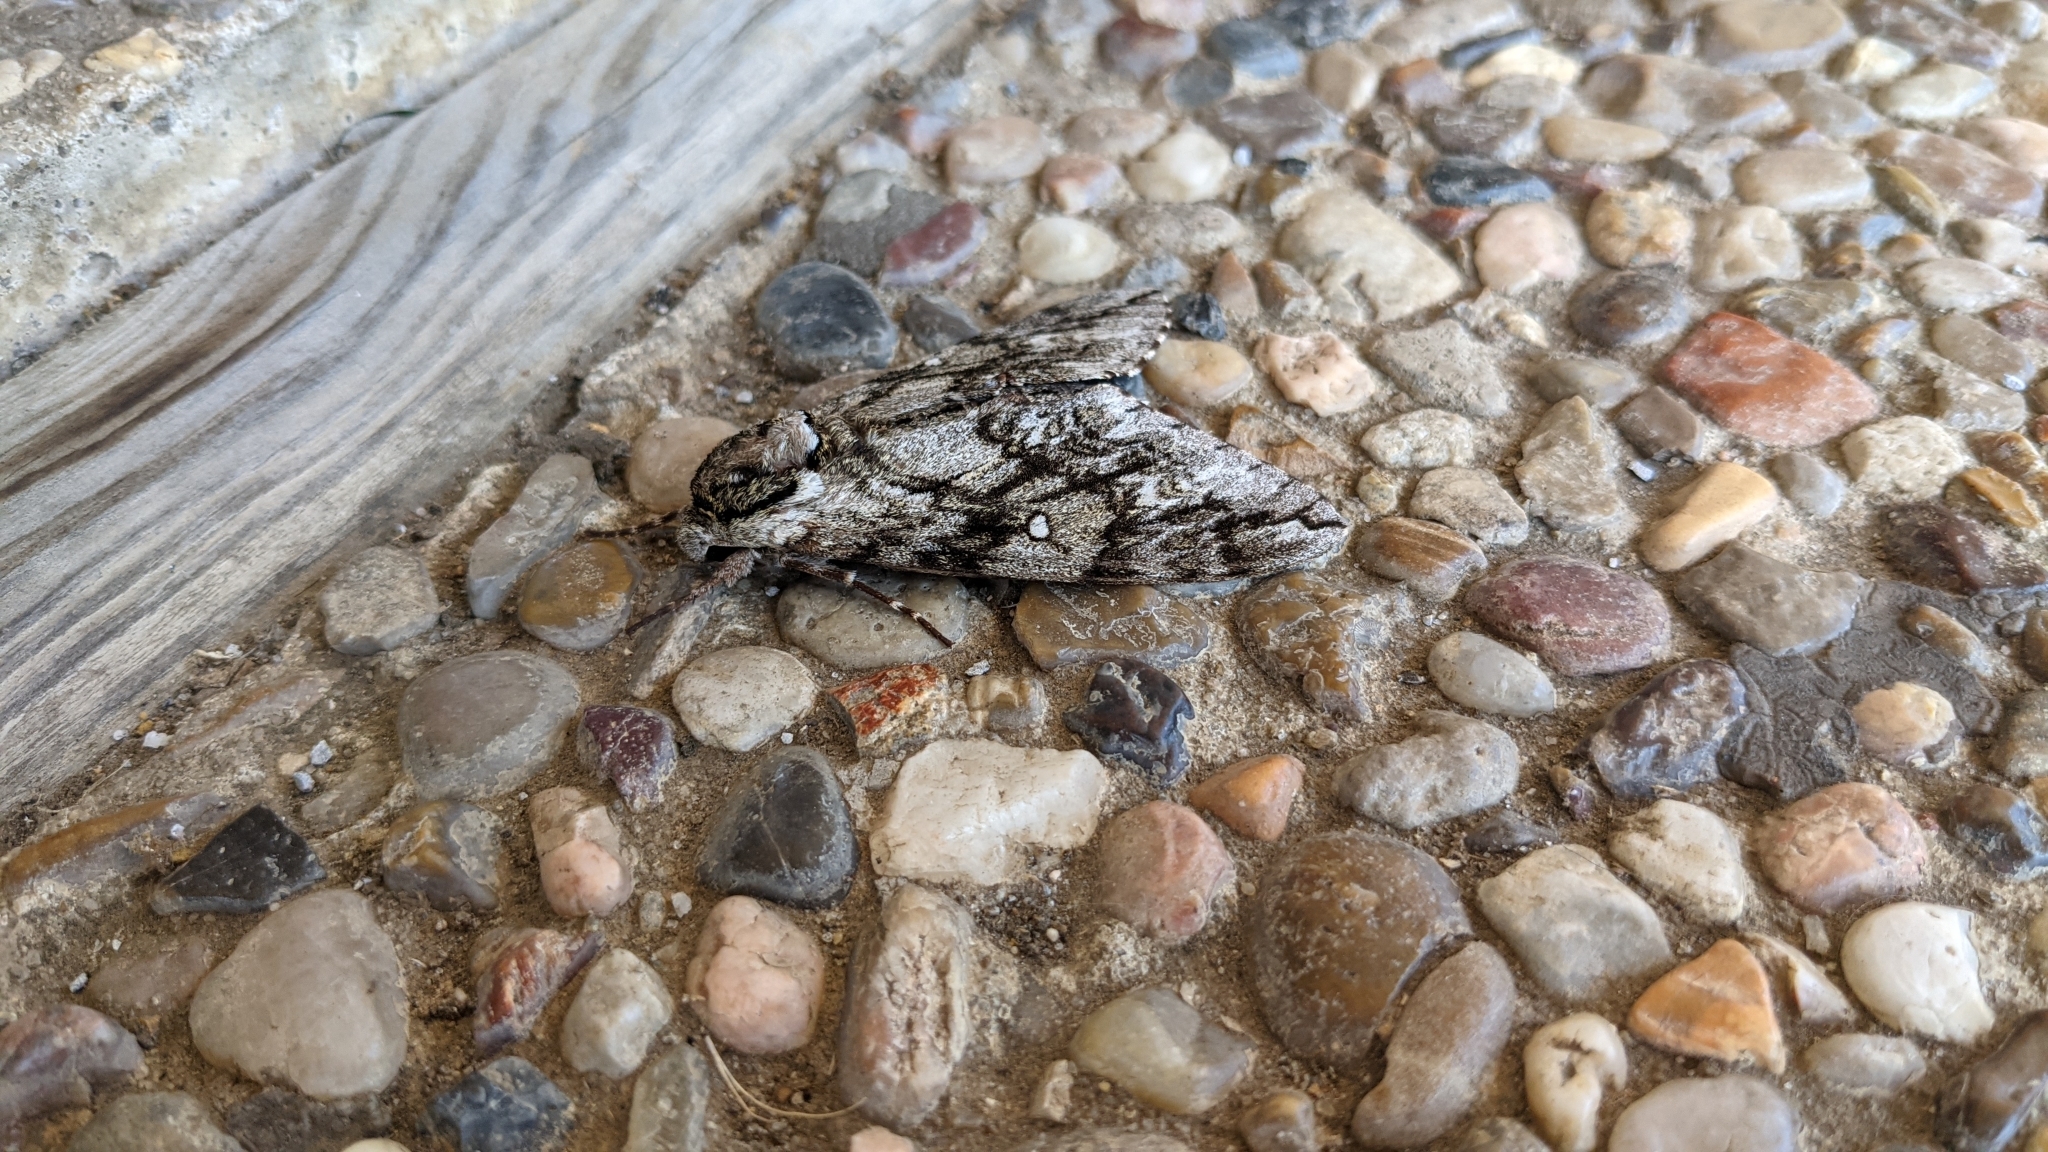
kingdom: Animalia
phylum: Arthropoda
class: Insecta
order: Lepidoptera
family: Sphingidae
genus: Ceratomia
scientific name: Ceratomia undulosa
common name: Waved sphinx
